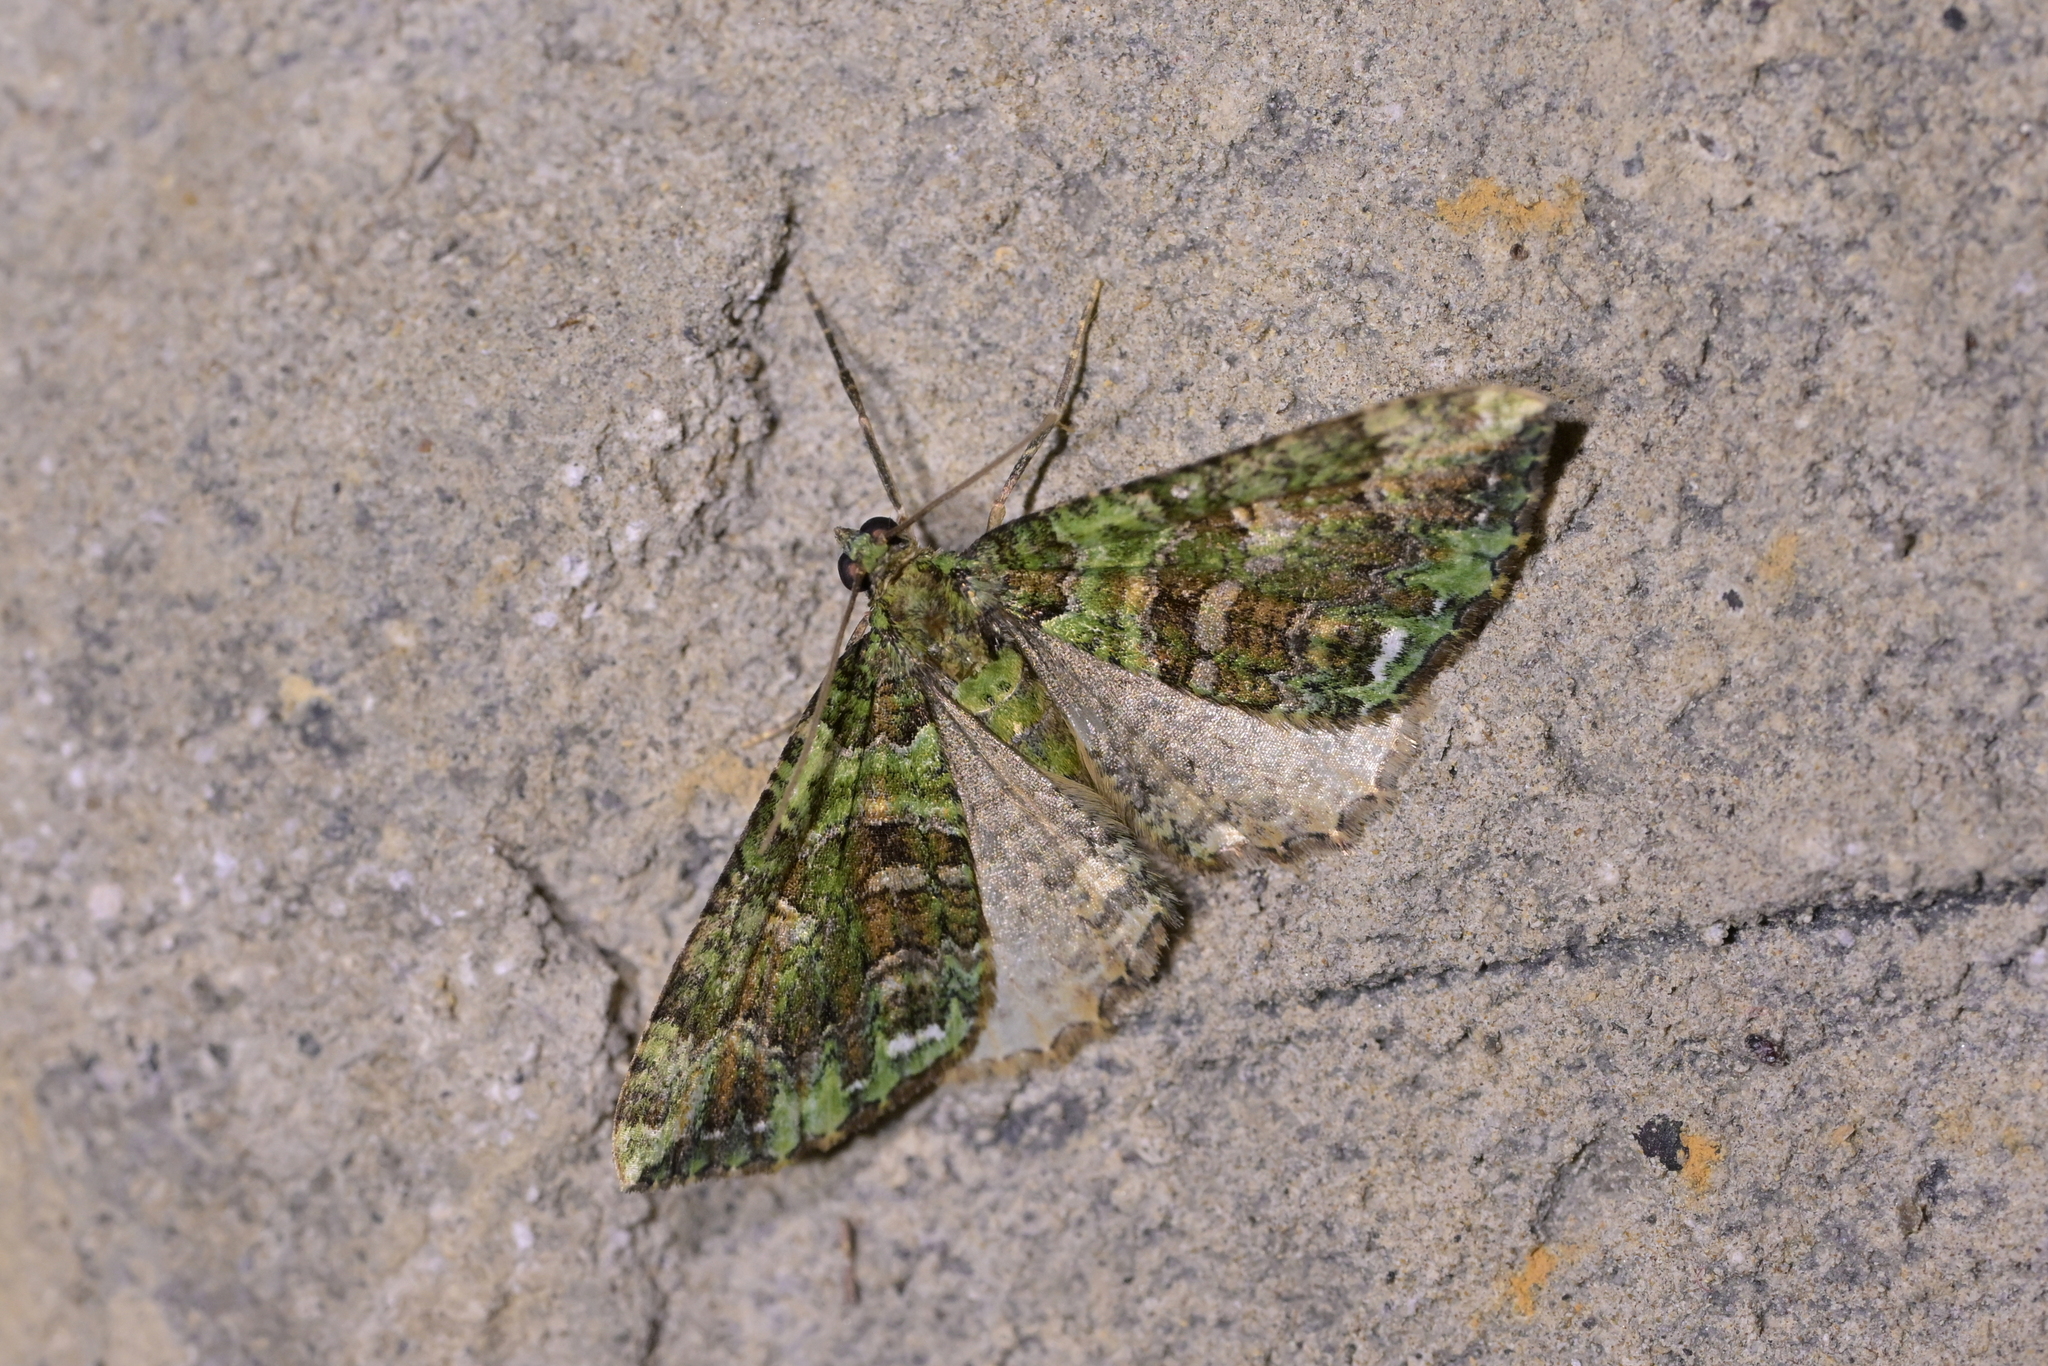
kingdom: Animalia
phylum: Arthropoda
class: Insecta
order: Lepidoptera
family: Geometridae
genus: Austrocidaria
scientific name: Austrocidaria similata
